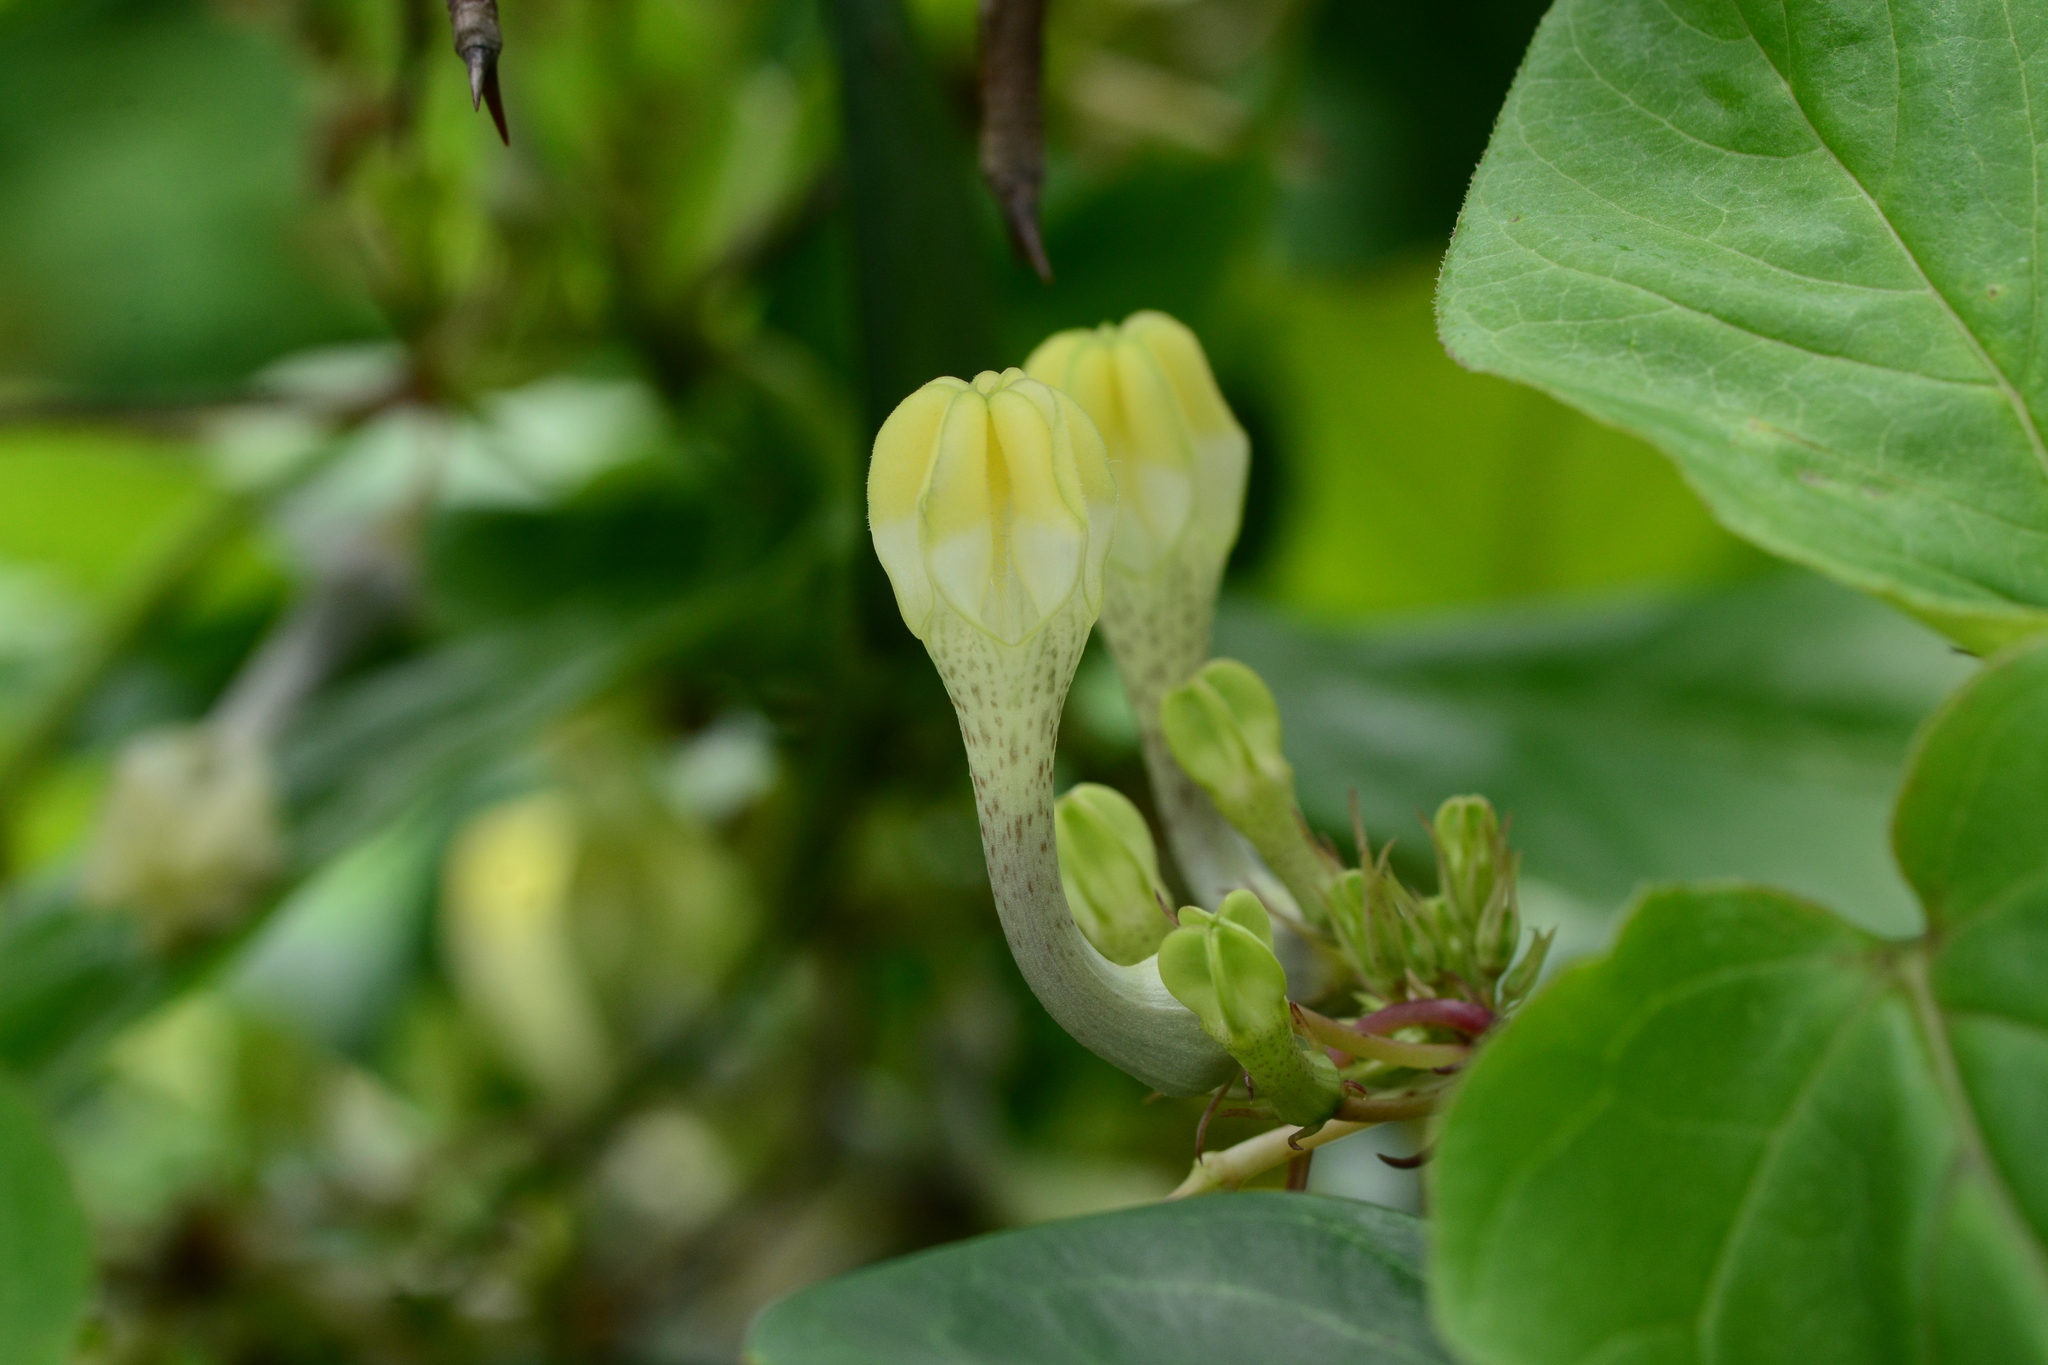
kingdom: Plantae
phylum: Tracheophyta
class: Magnoliopsida
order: Gentianales
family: Apocynaceae
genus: Ceropegia
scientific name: Ceropegia evansii
